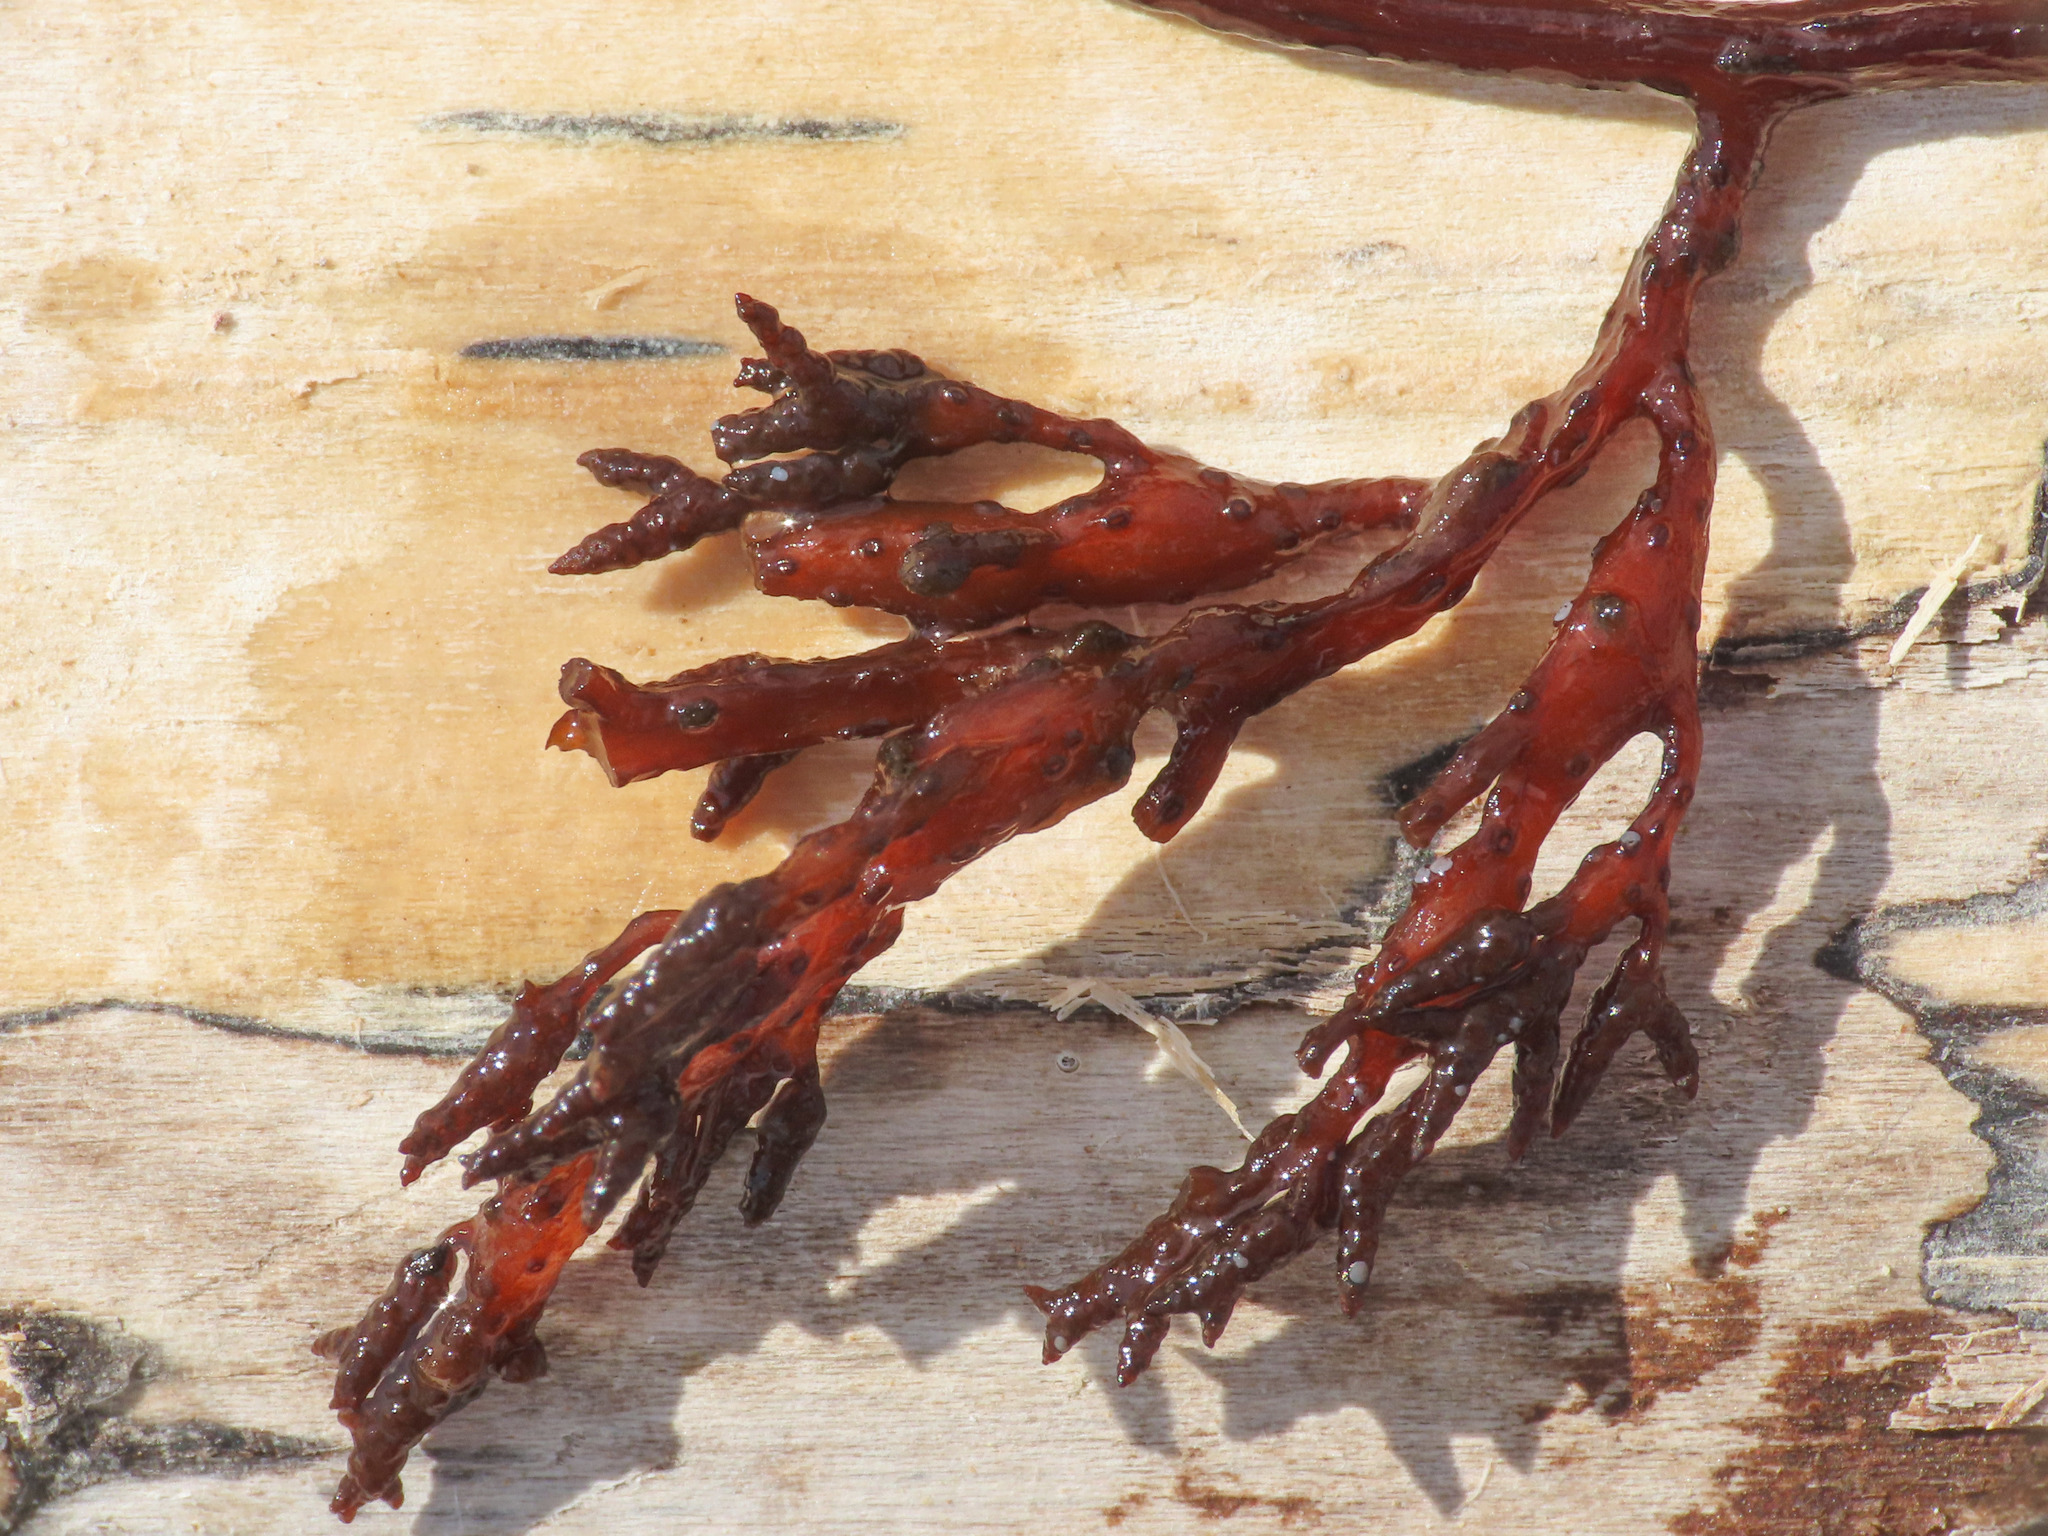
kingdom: Chromista
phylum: Ochrophyta
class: Phaeophyceae
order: Fucales
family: Sargassaceae
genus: Cystoseira
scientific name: Cystoseira compressa
